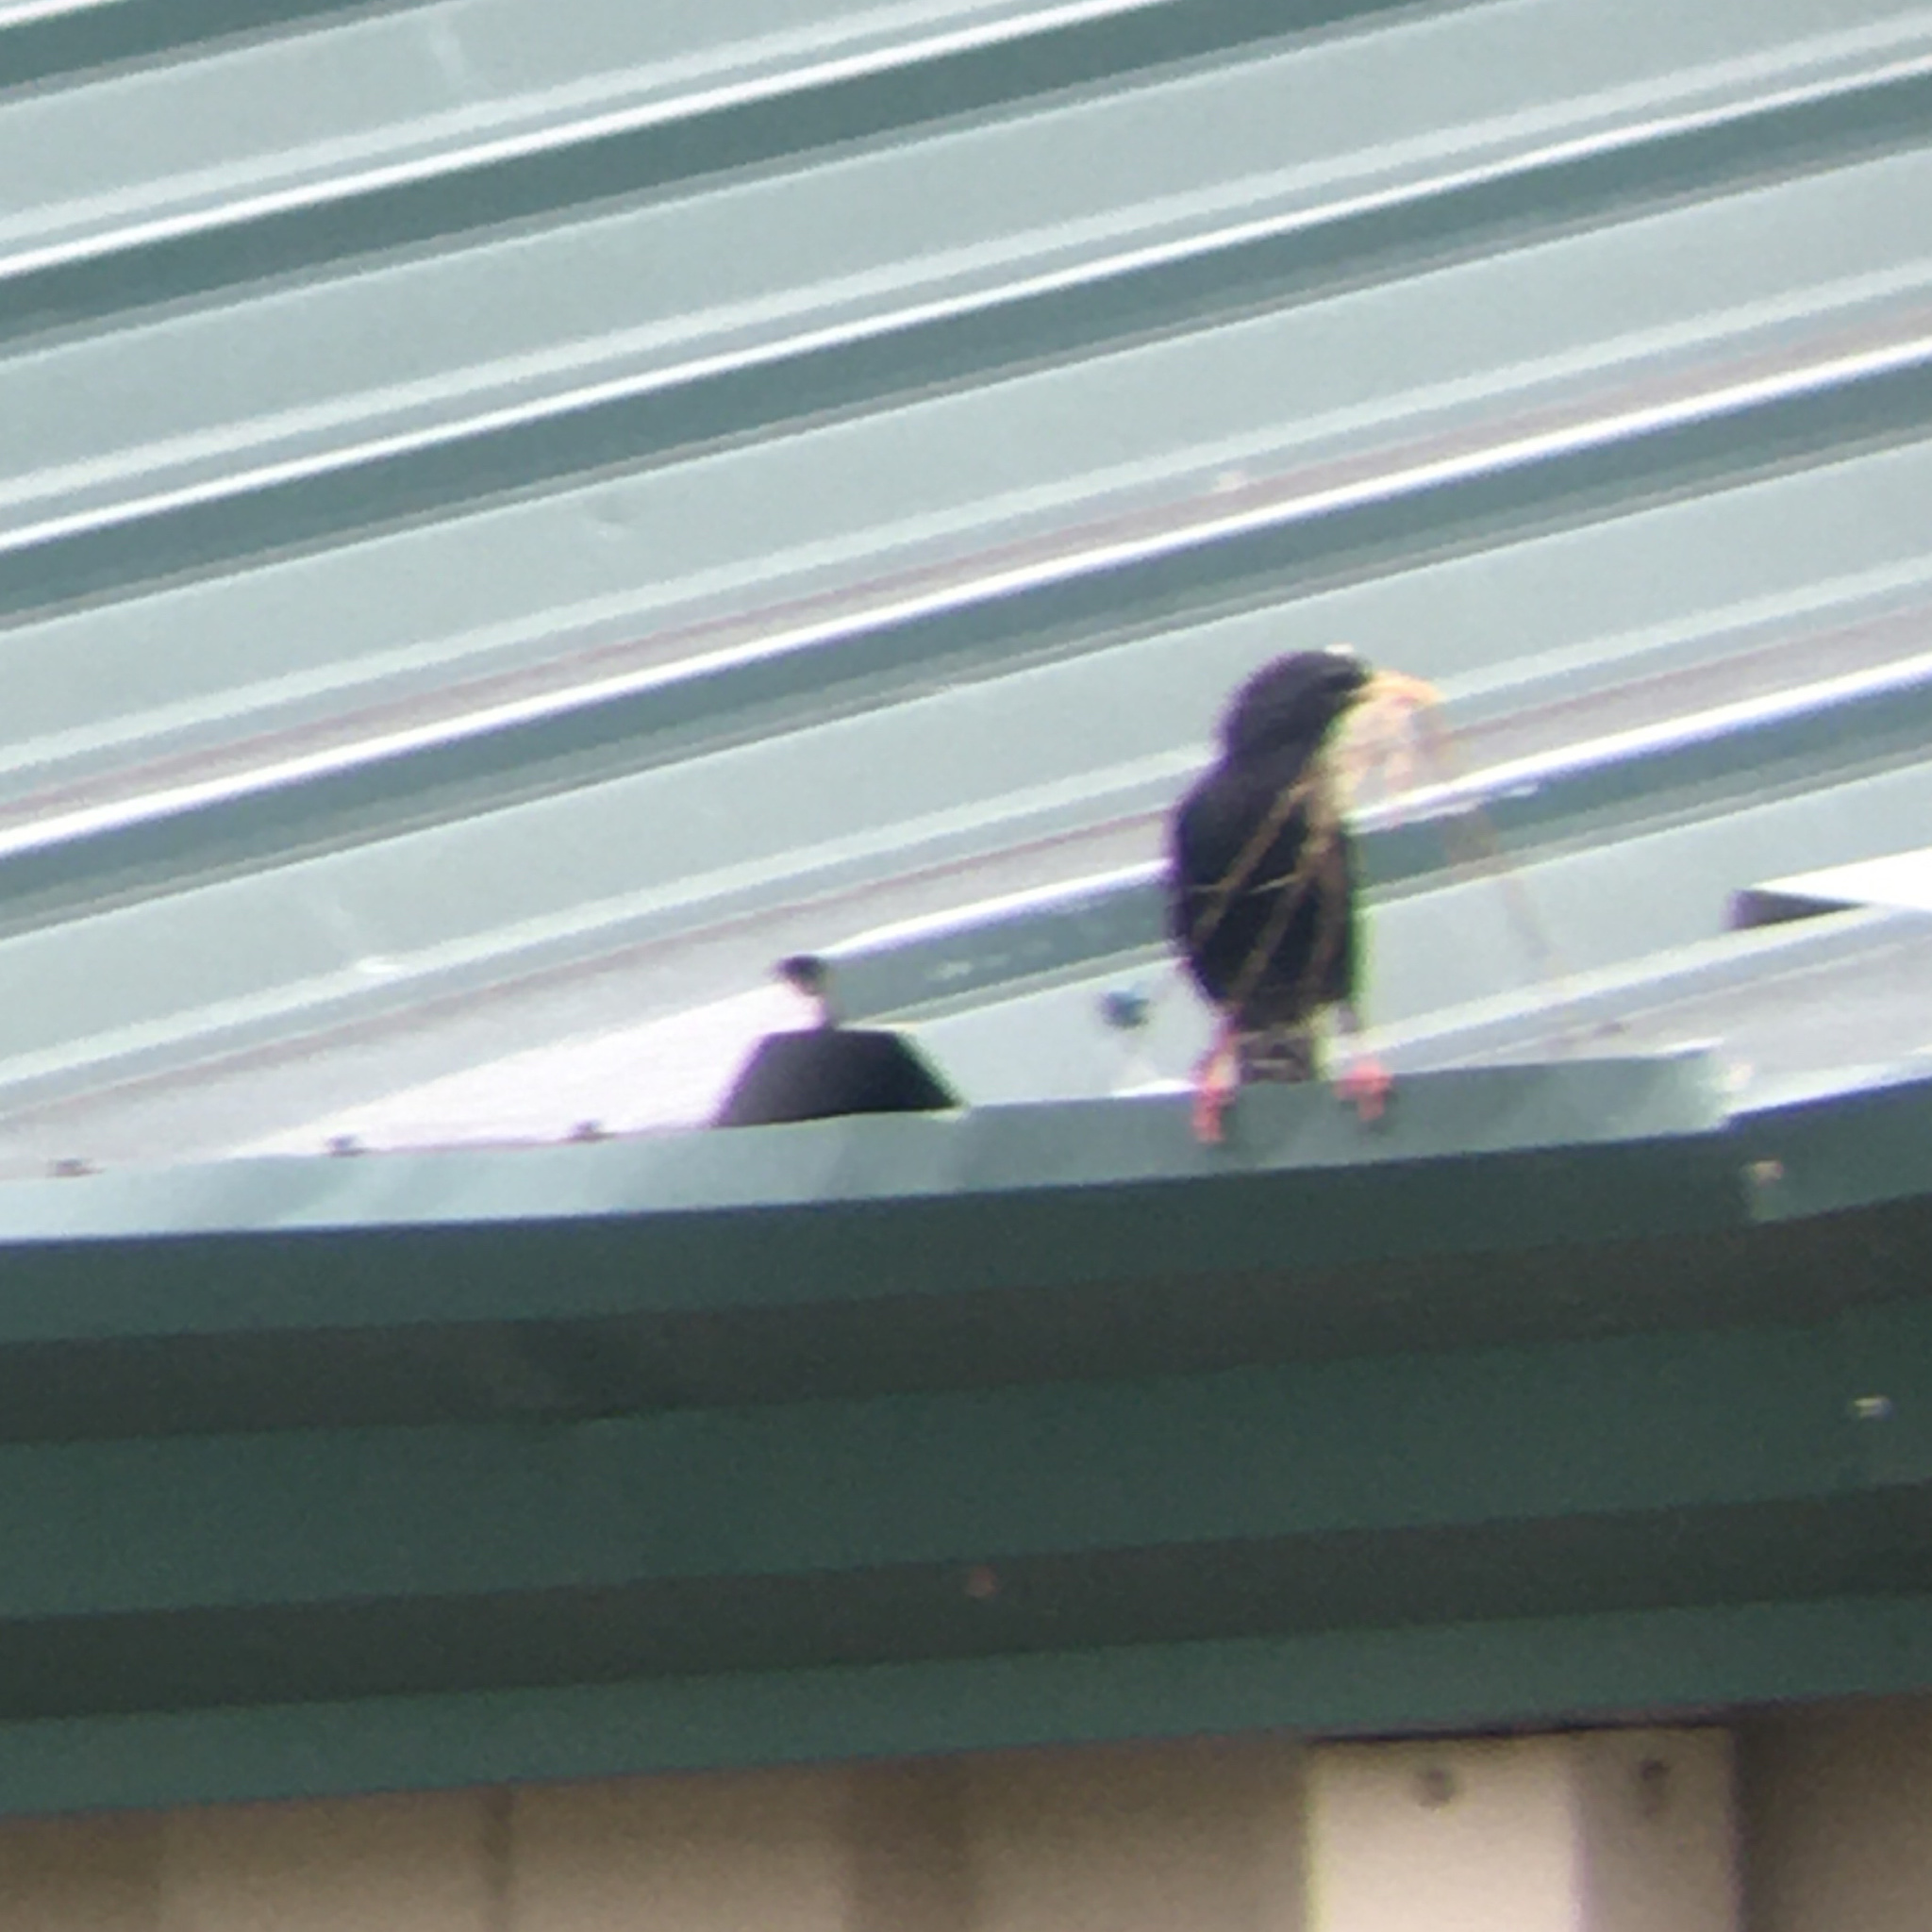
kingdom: Animalia
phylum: Chordata
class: Aves
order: Passeriformes
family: Sturnidae
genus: Sturnus
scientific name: Sturnus vulgaris
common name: Common starling
